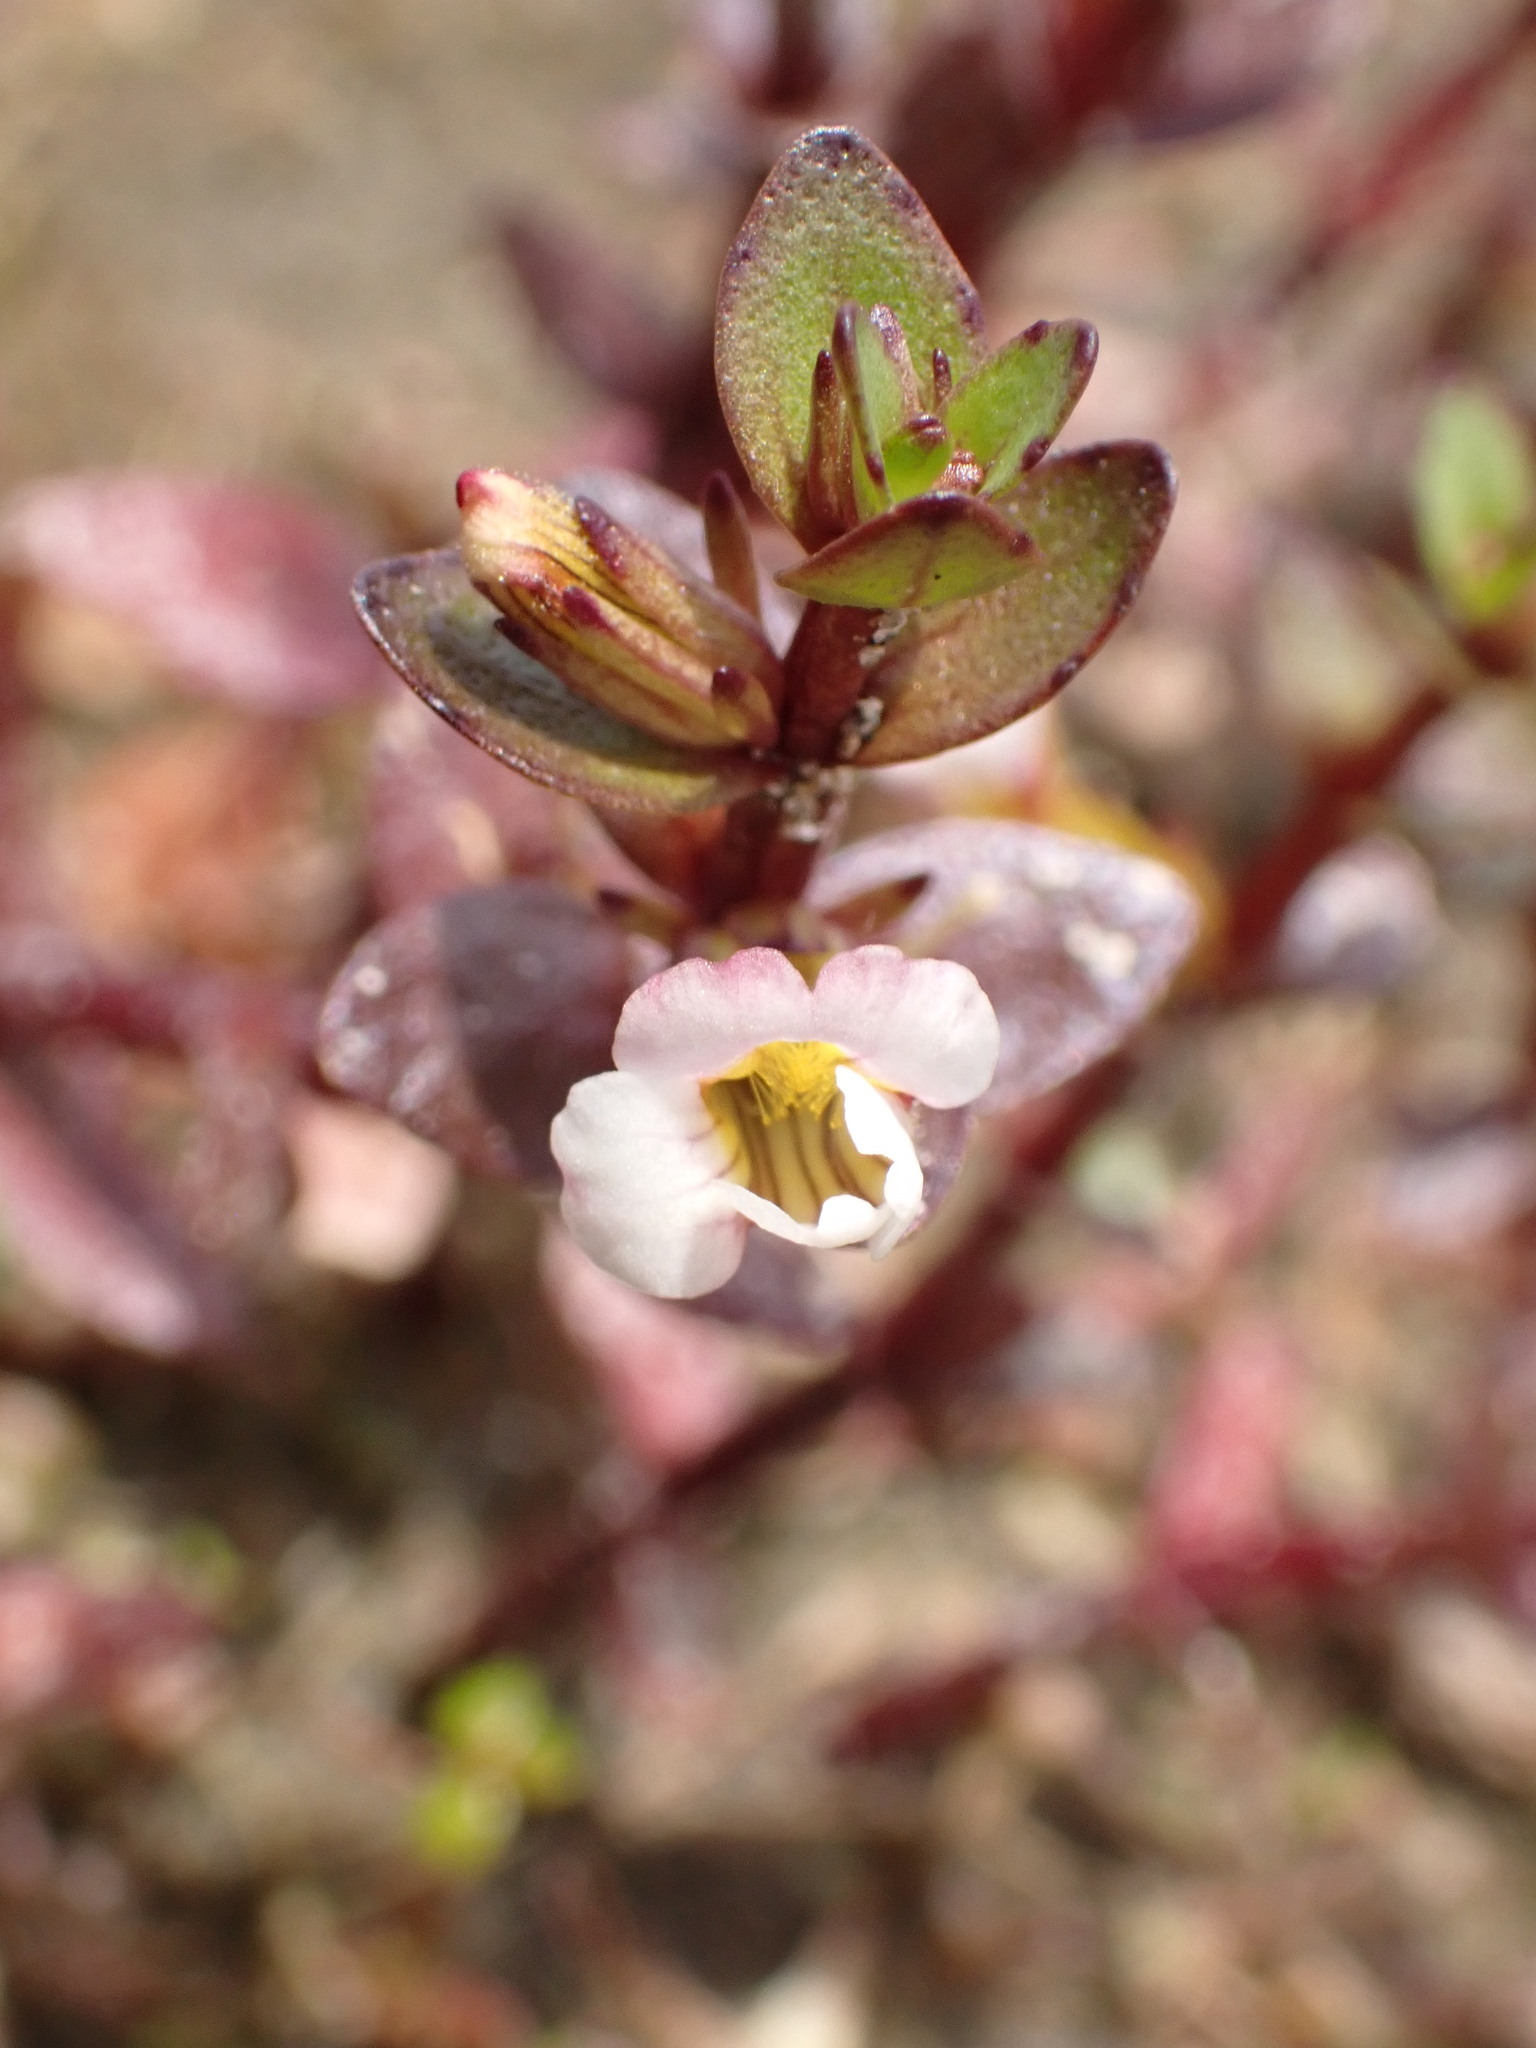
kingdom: Plantae
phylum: Tracheophyta
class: Magnoliopsida
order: Lamiales
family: Plantaginaceae
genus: Gratiola
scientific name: Gratiola sexdentata
